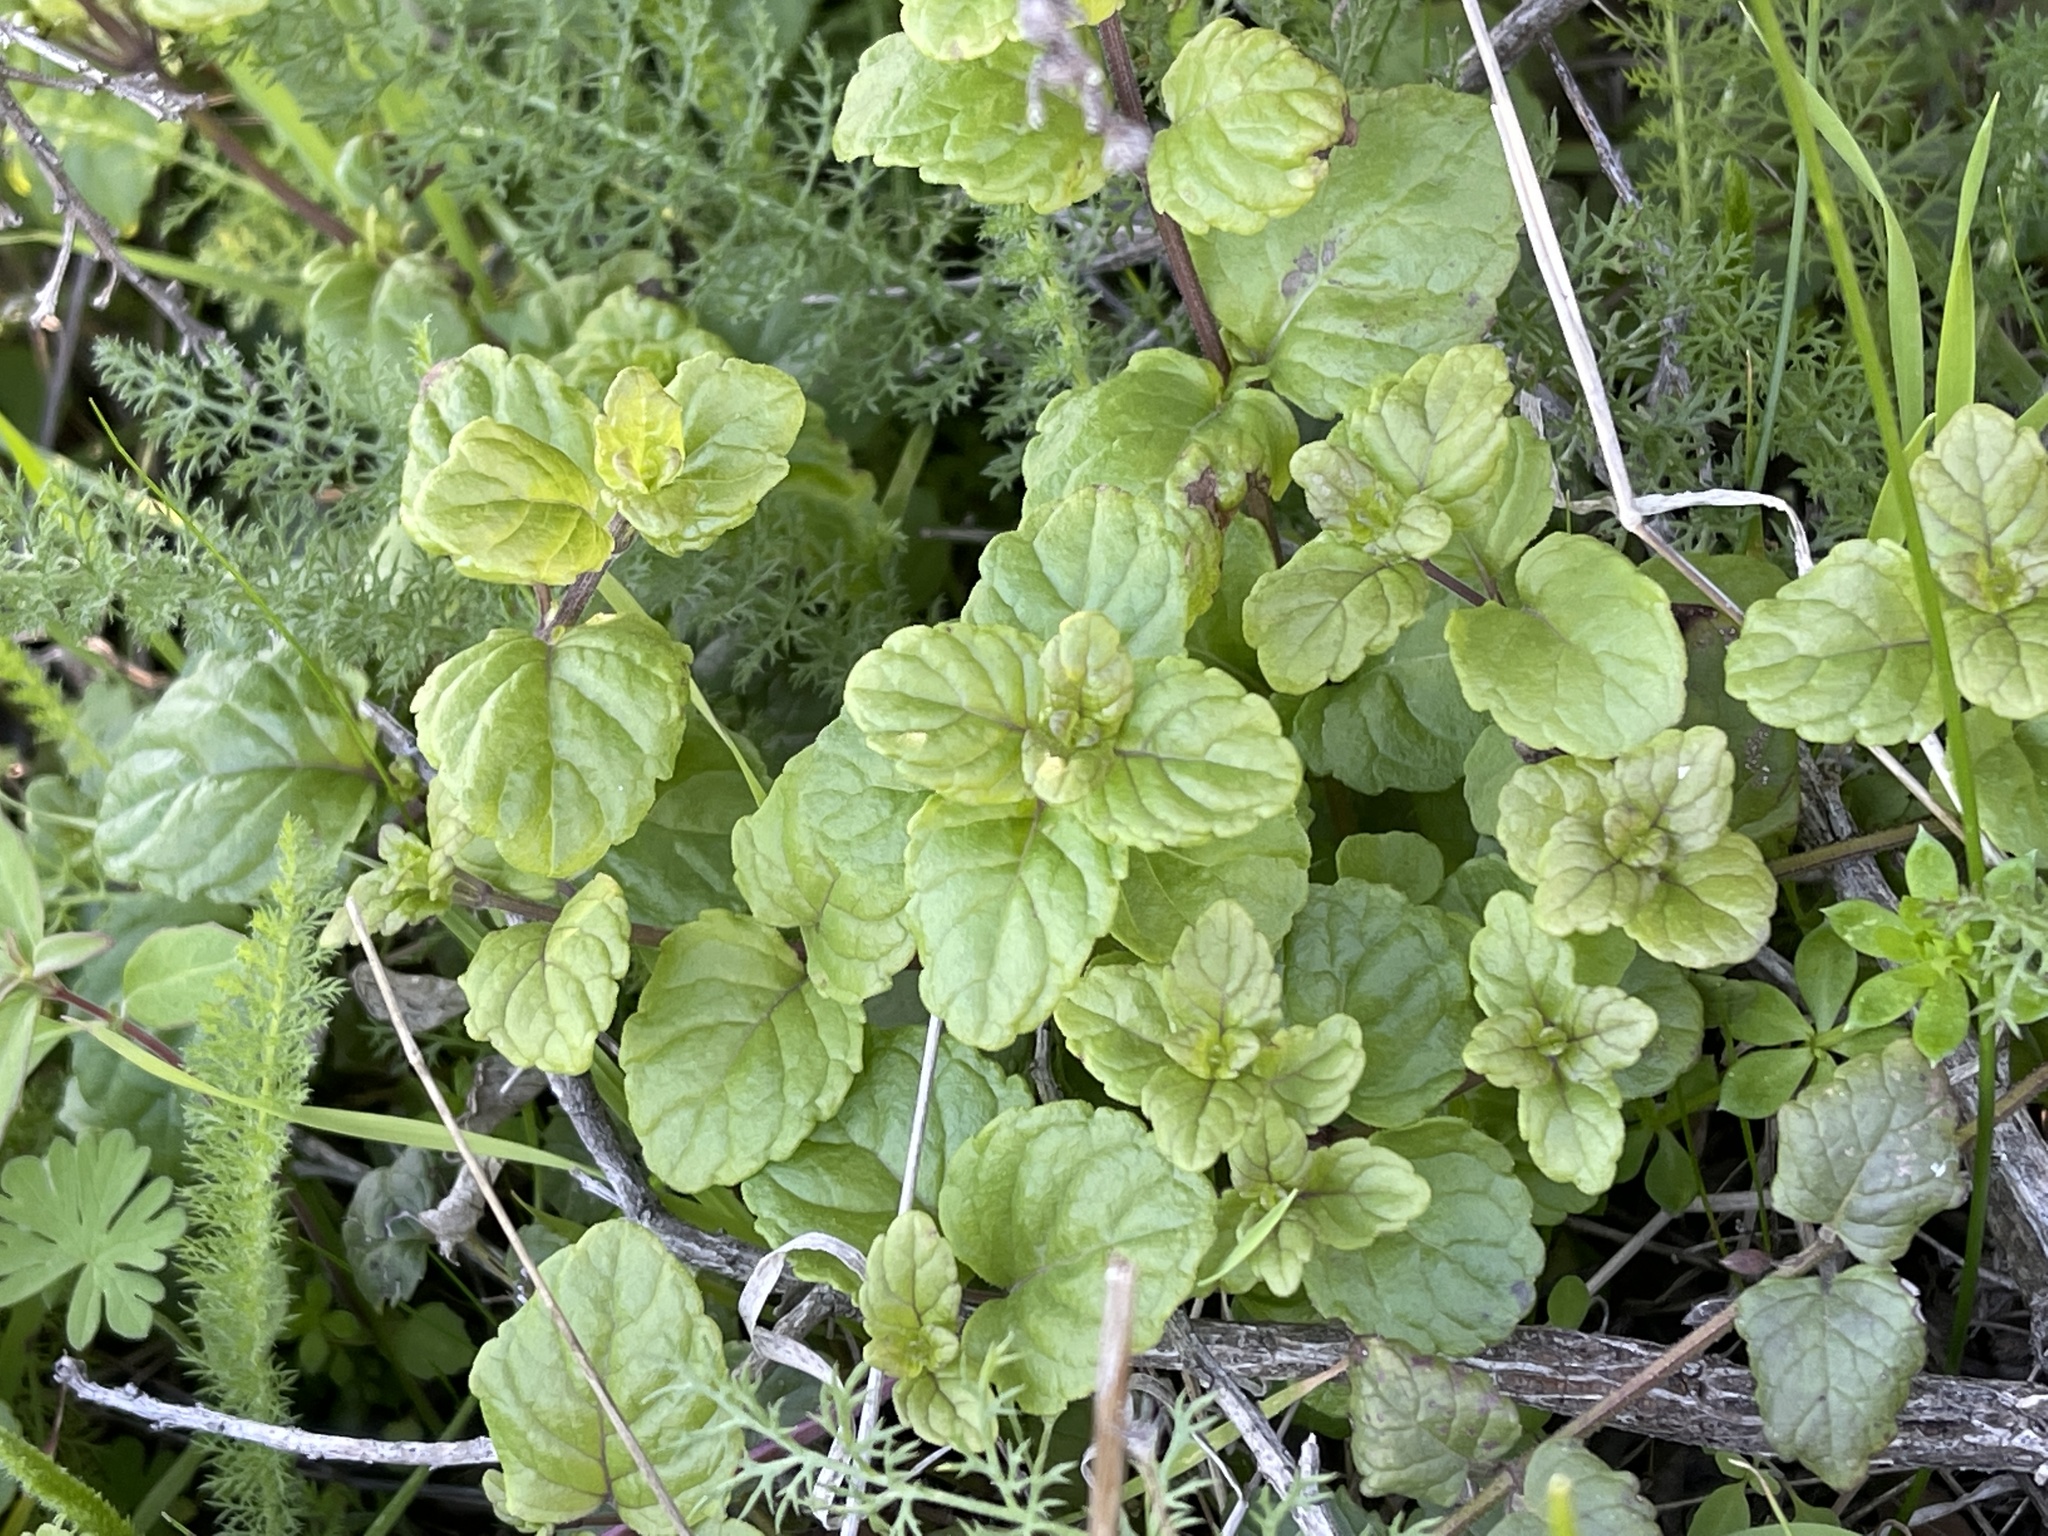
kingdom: Plantae
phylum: Tracheophyta
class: Magnoliopsida
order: Lamiales
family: Lamiaceae
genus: Micromeria
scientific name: Micromeria douglasii
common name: Yerba buena
